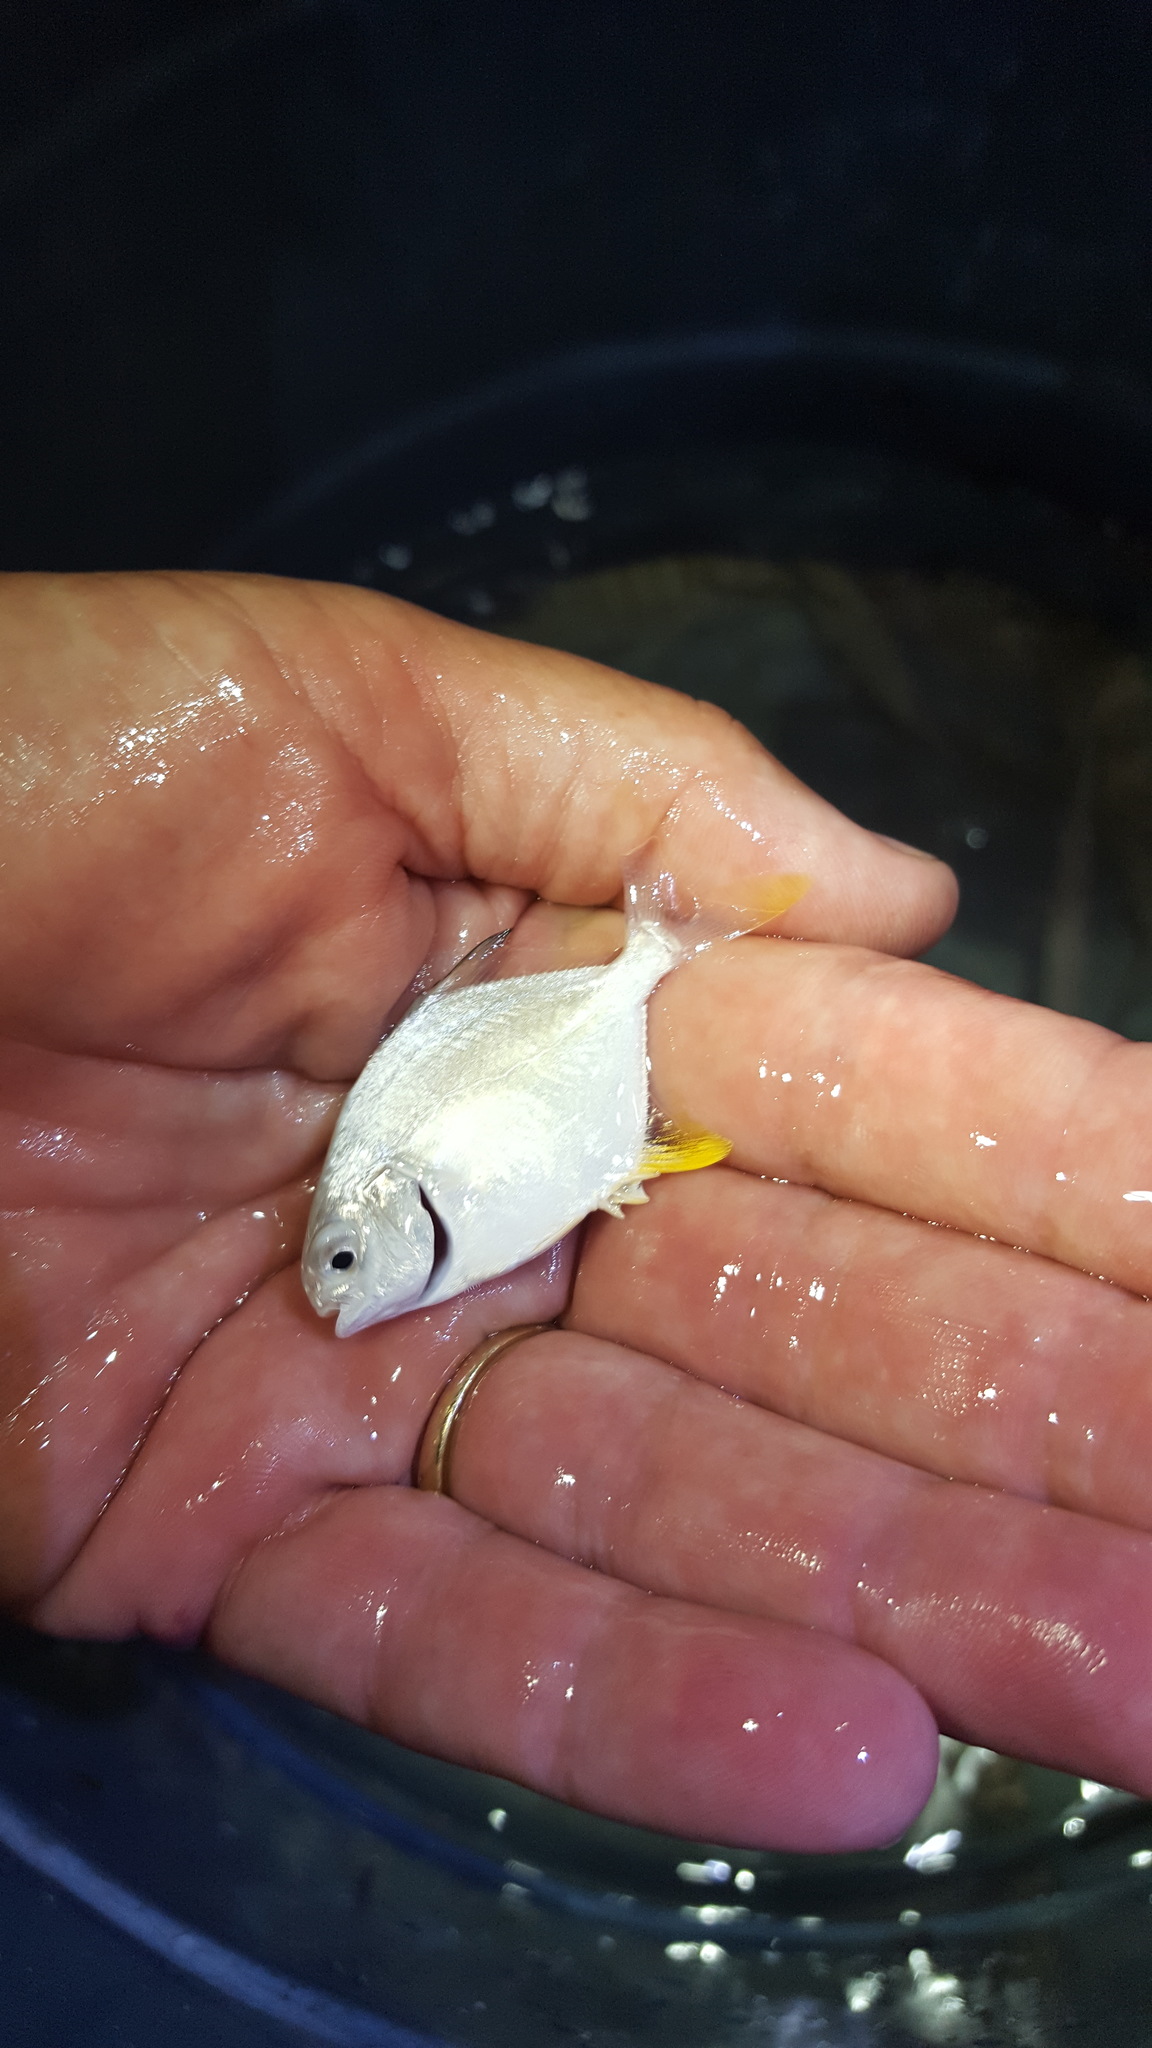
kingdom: Animalia
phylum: Chordata
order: Perciformes
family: Carangidae
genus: Trachinotus
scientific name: Trachinotus carolinus
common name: Florida pompano
